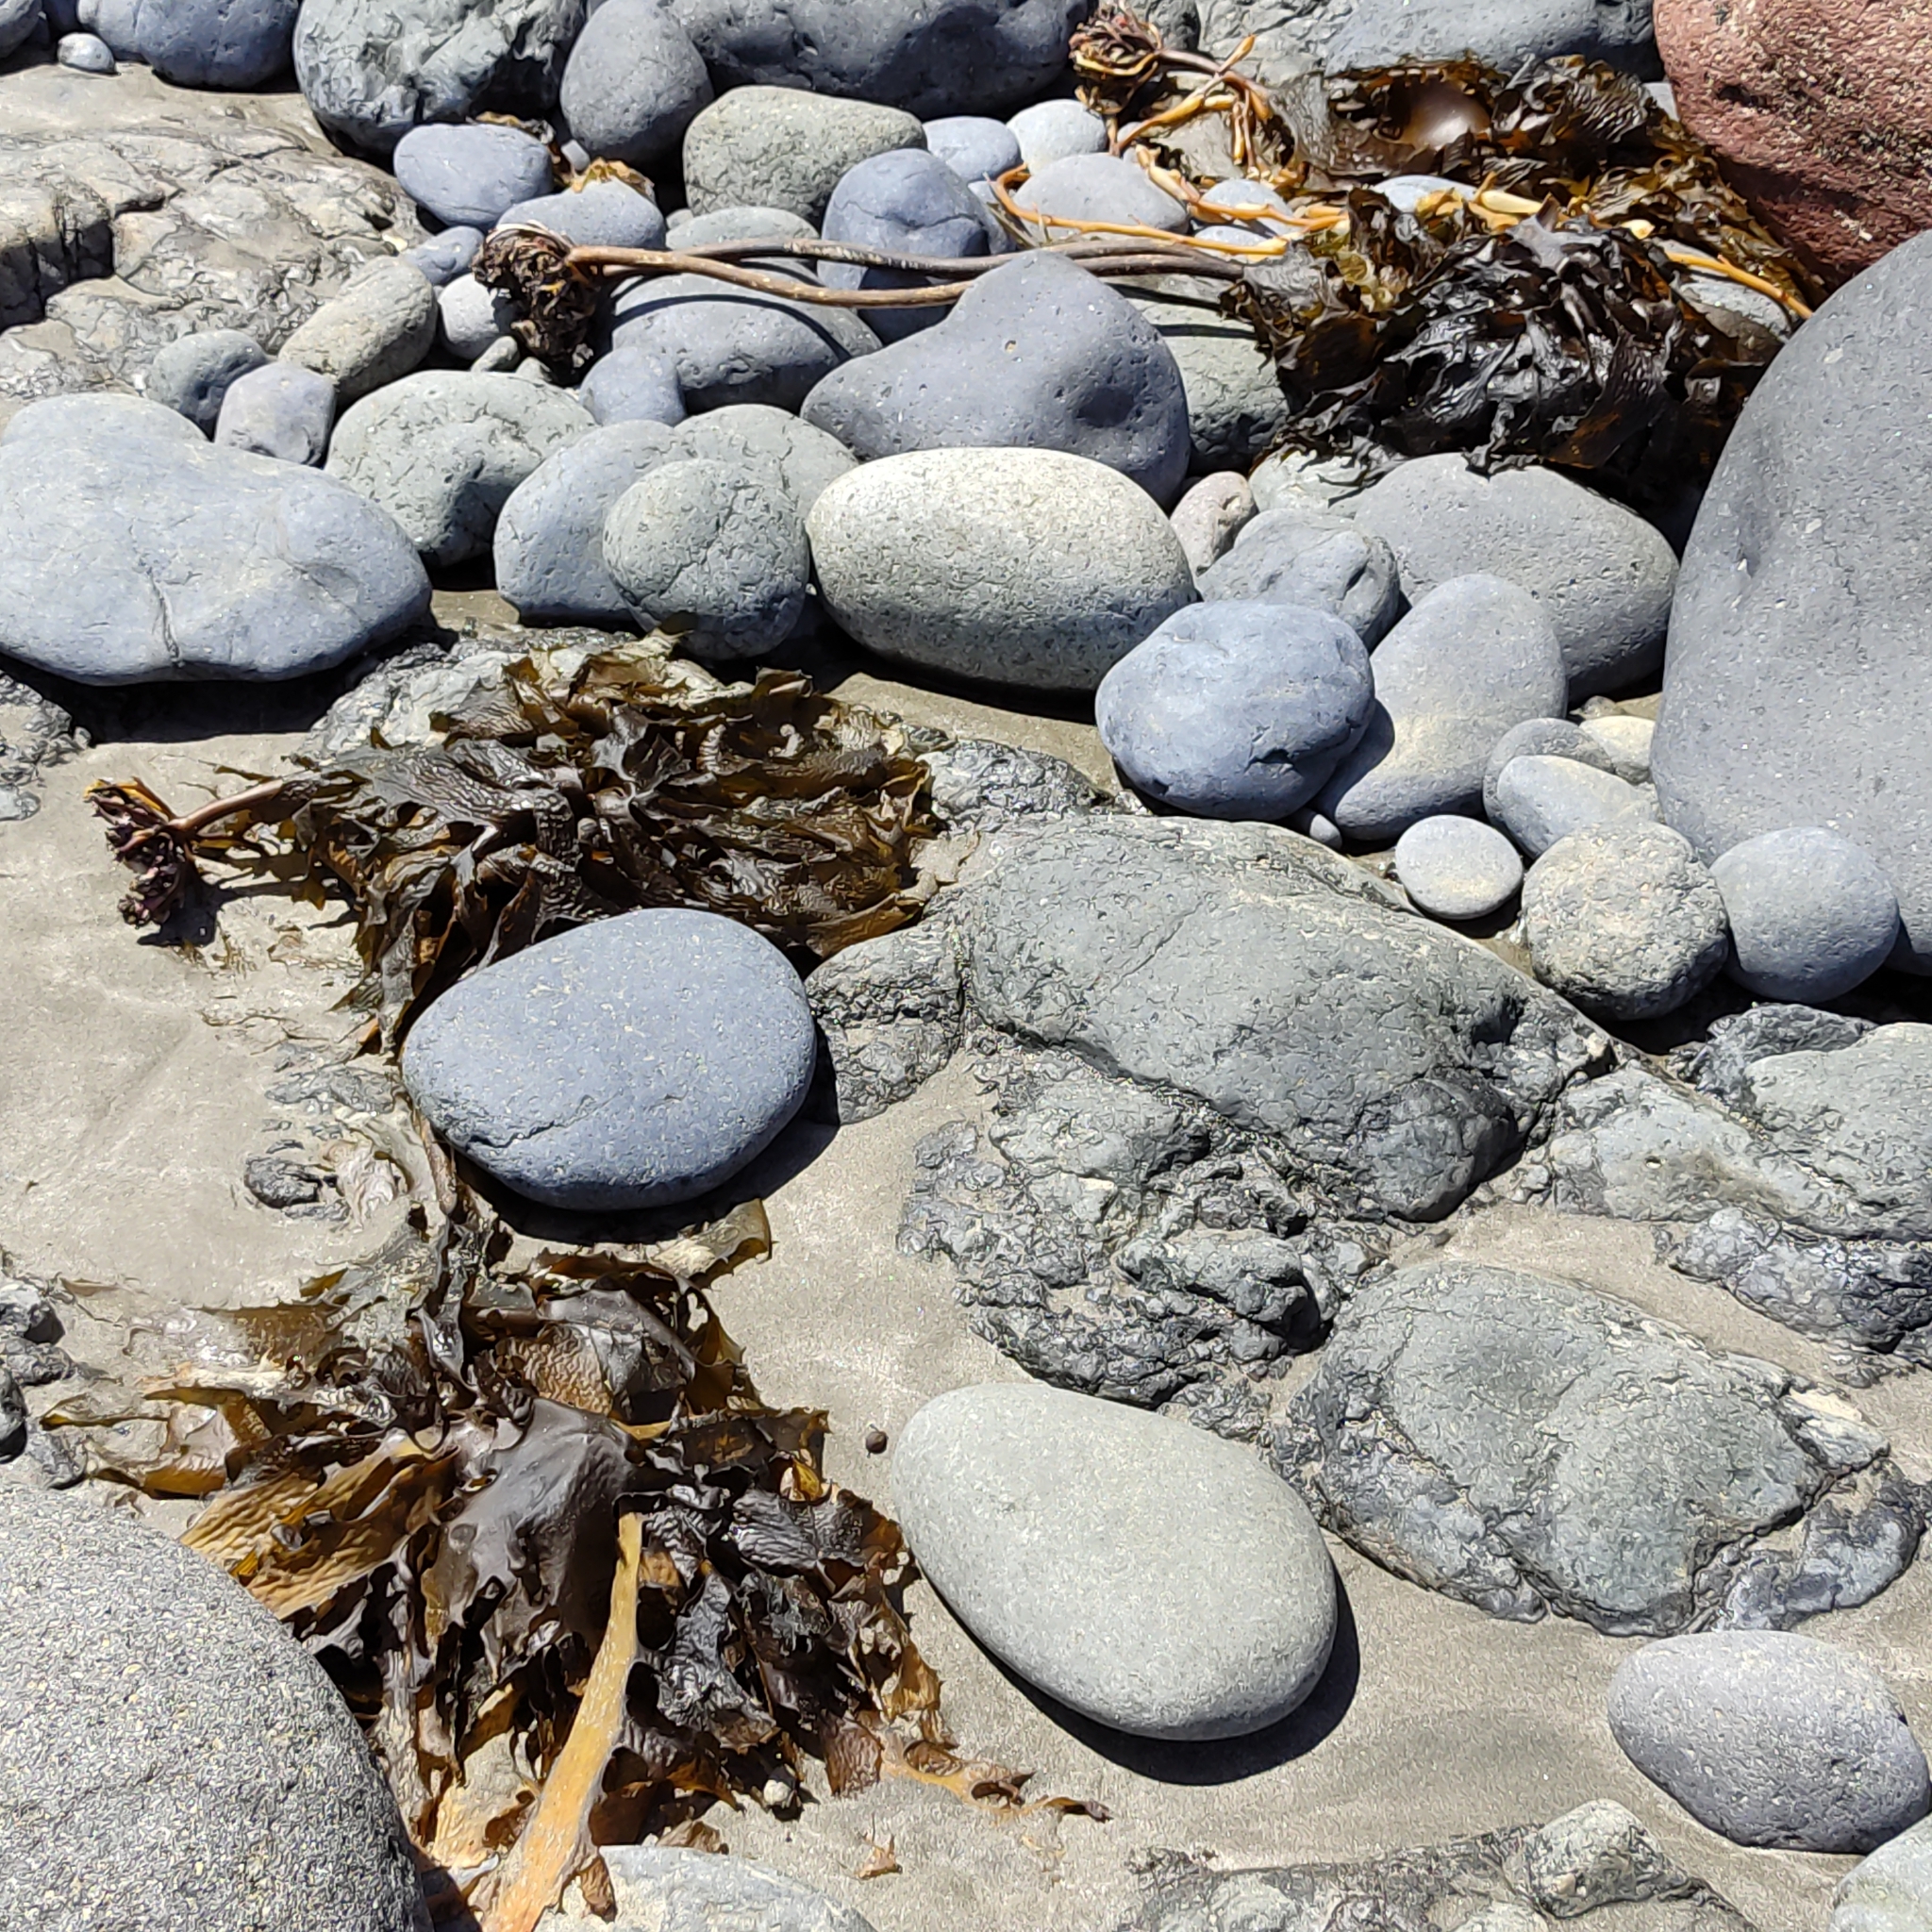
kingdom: Chromista
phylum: Ochrophyta
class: Phaeophyceae
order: Laminariales
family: Lessoniaceae
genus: Ecklonia
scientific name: Ecklonia radiata
